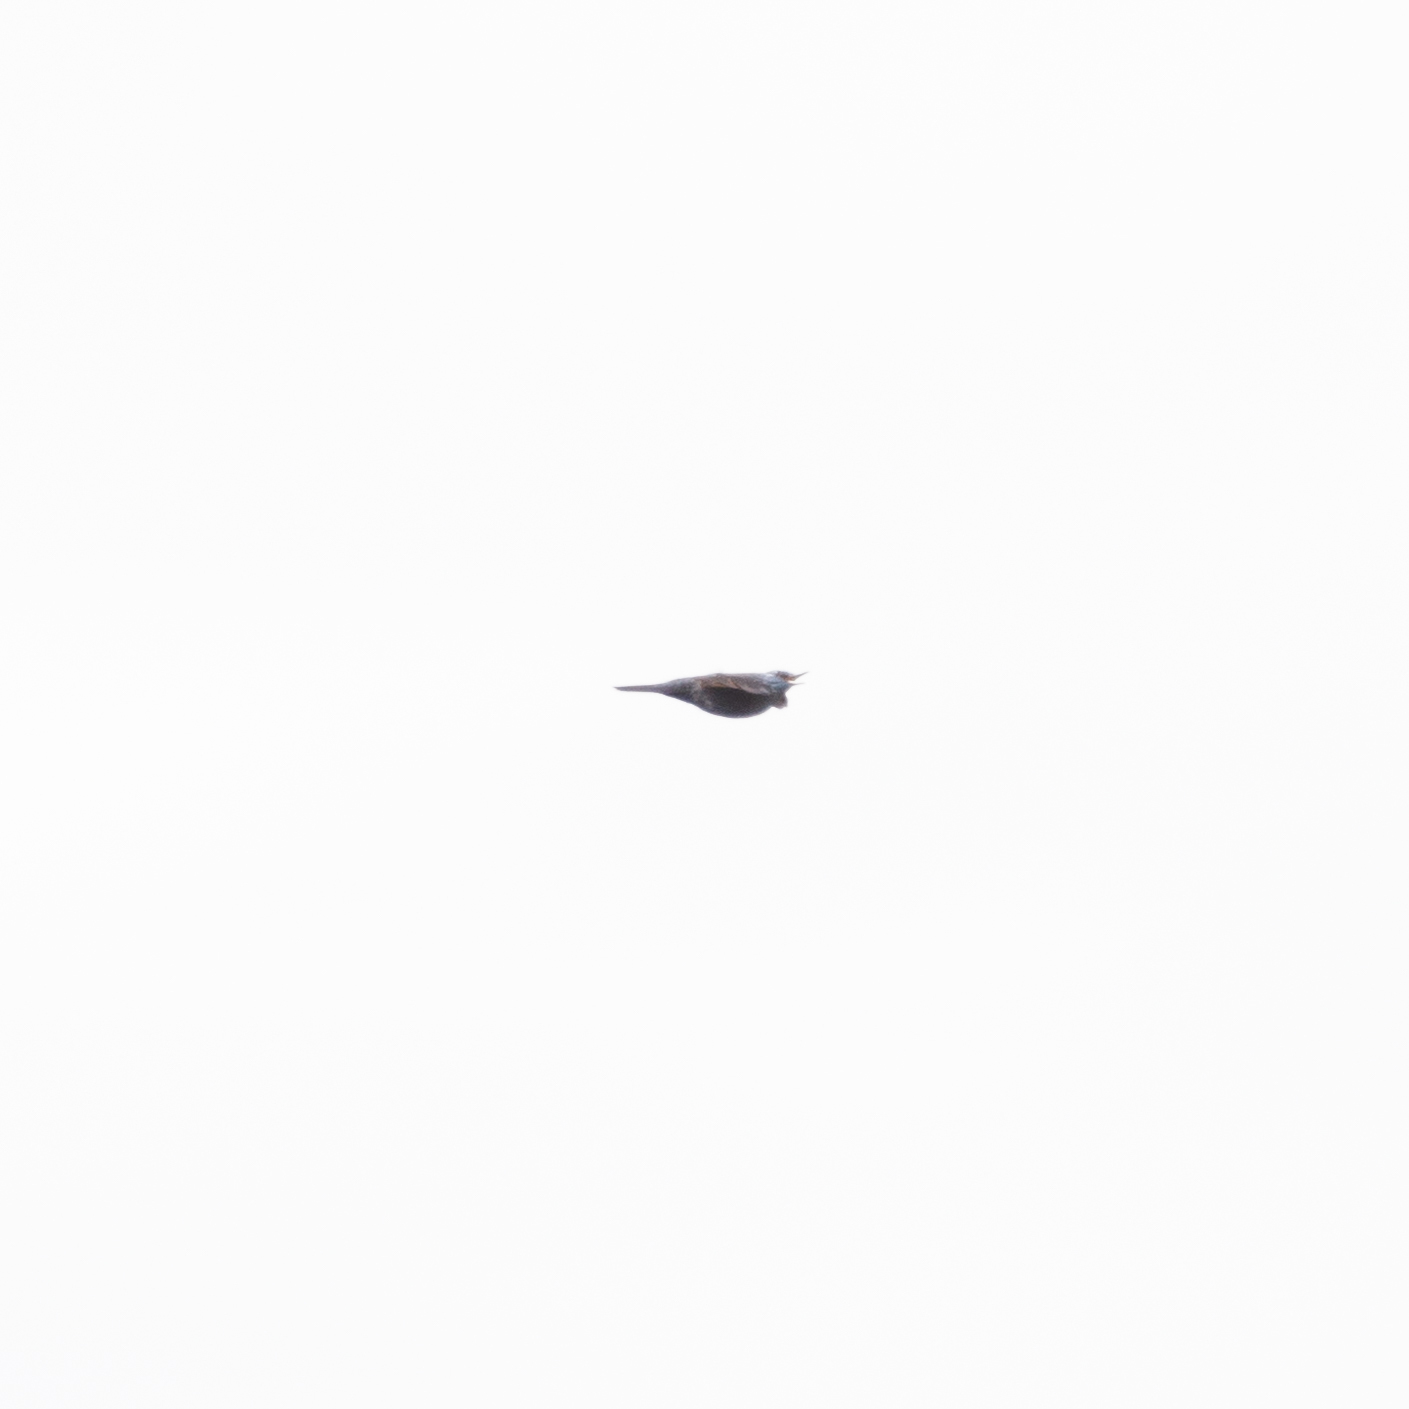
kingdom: Animalia
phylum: Chordata
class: Aves
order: Passeriformes
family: Muscicapidae
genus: Monticola
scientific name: Monticola solitarius
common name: Blue rock thrush
